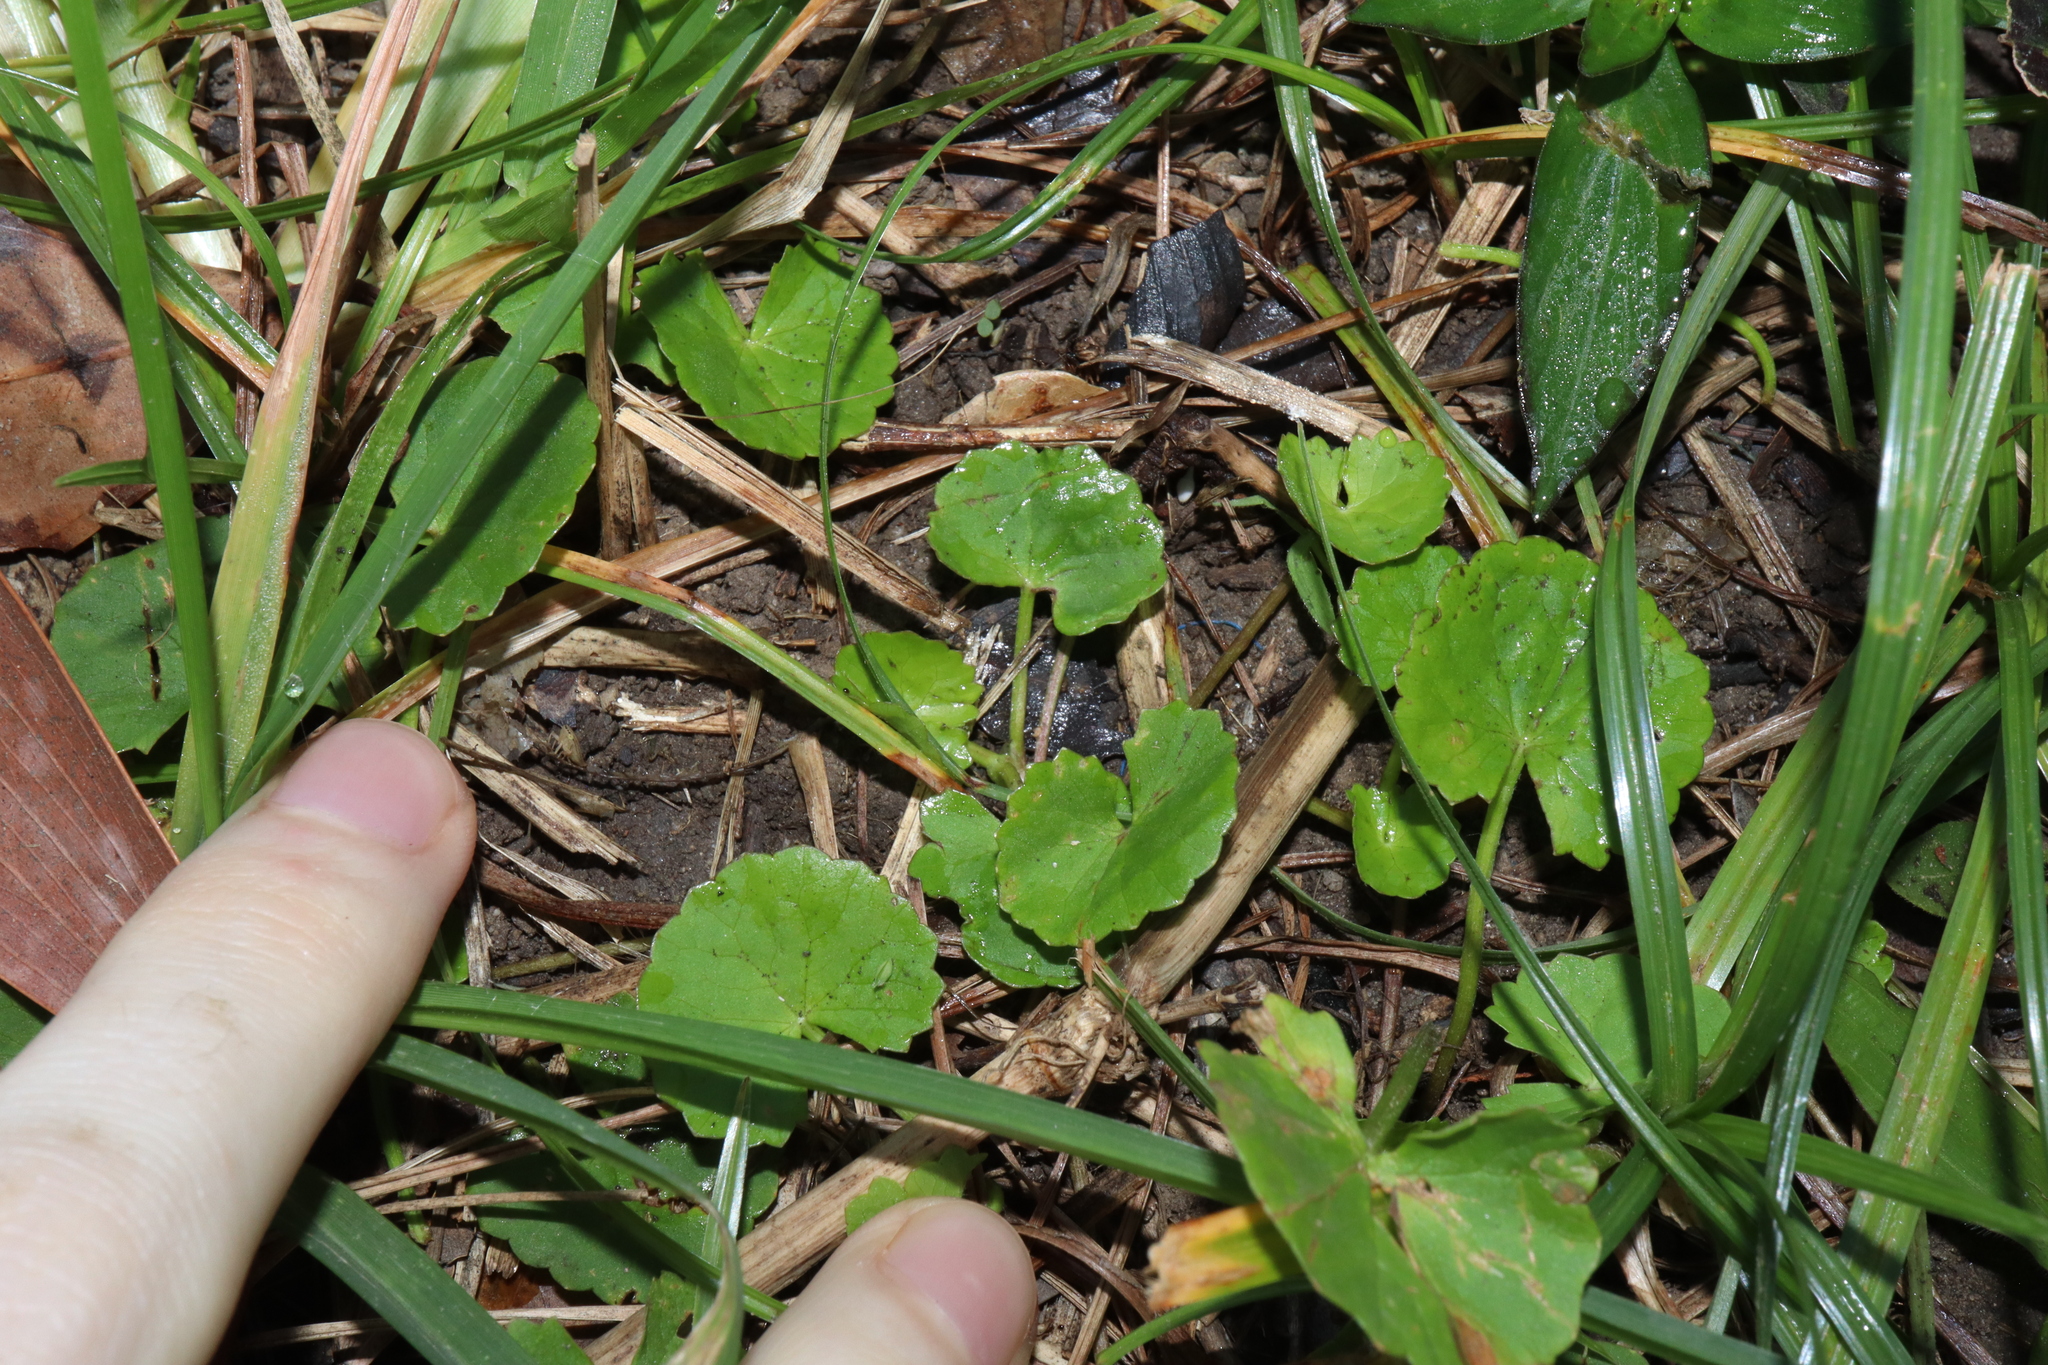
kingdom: Plantae
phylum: Tracheophyta
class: Magnoliopsida
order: Apiales
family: Apiaceae
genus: Centella
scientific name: Centella asiatica
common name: Spadeleaf
